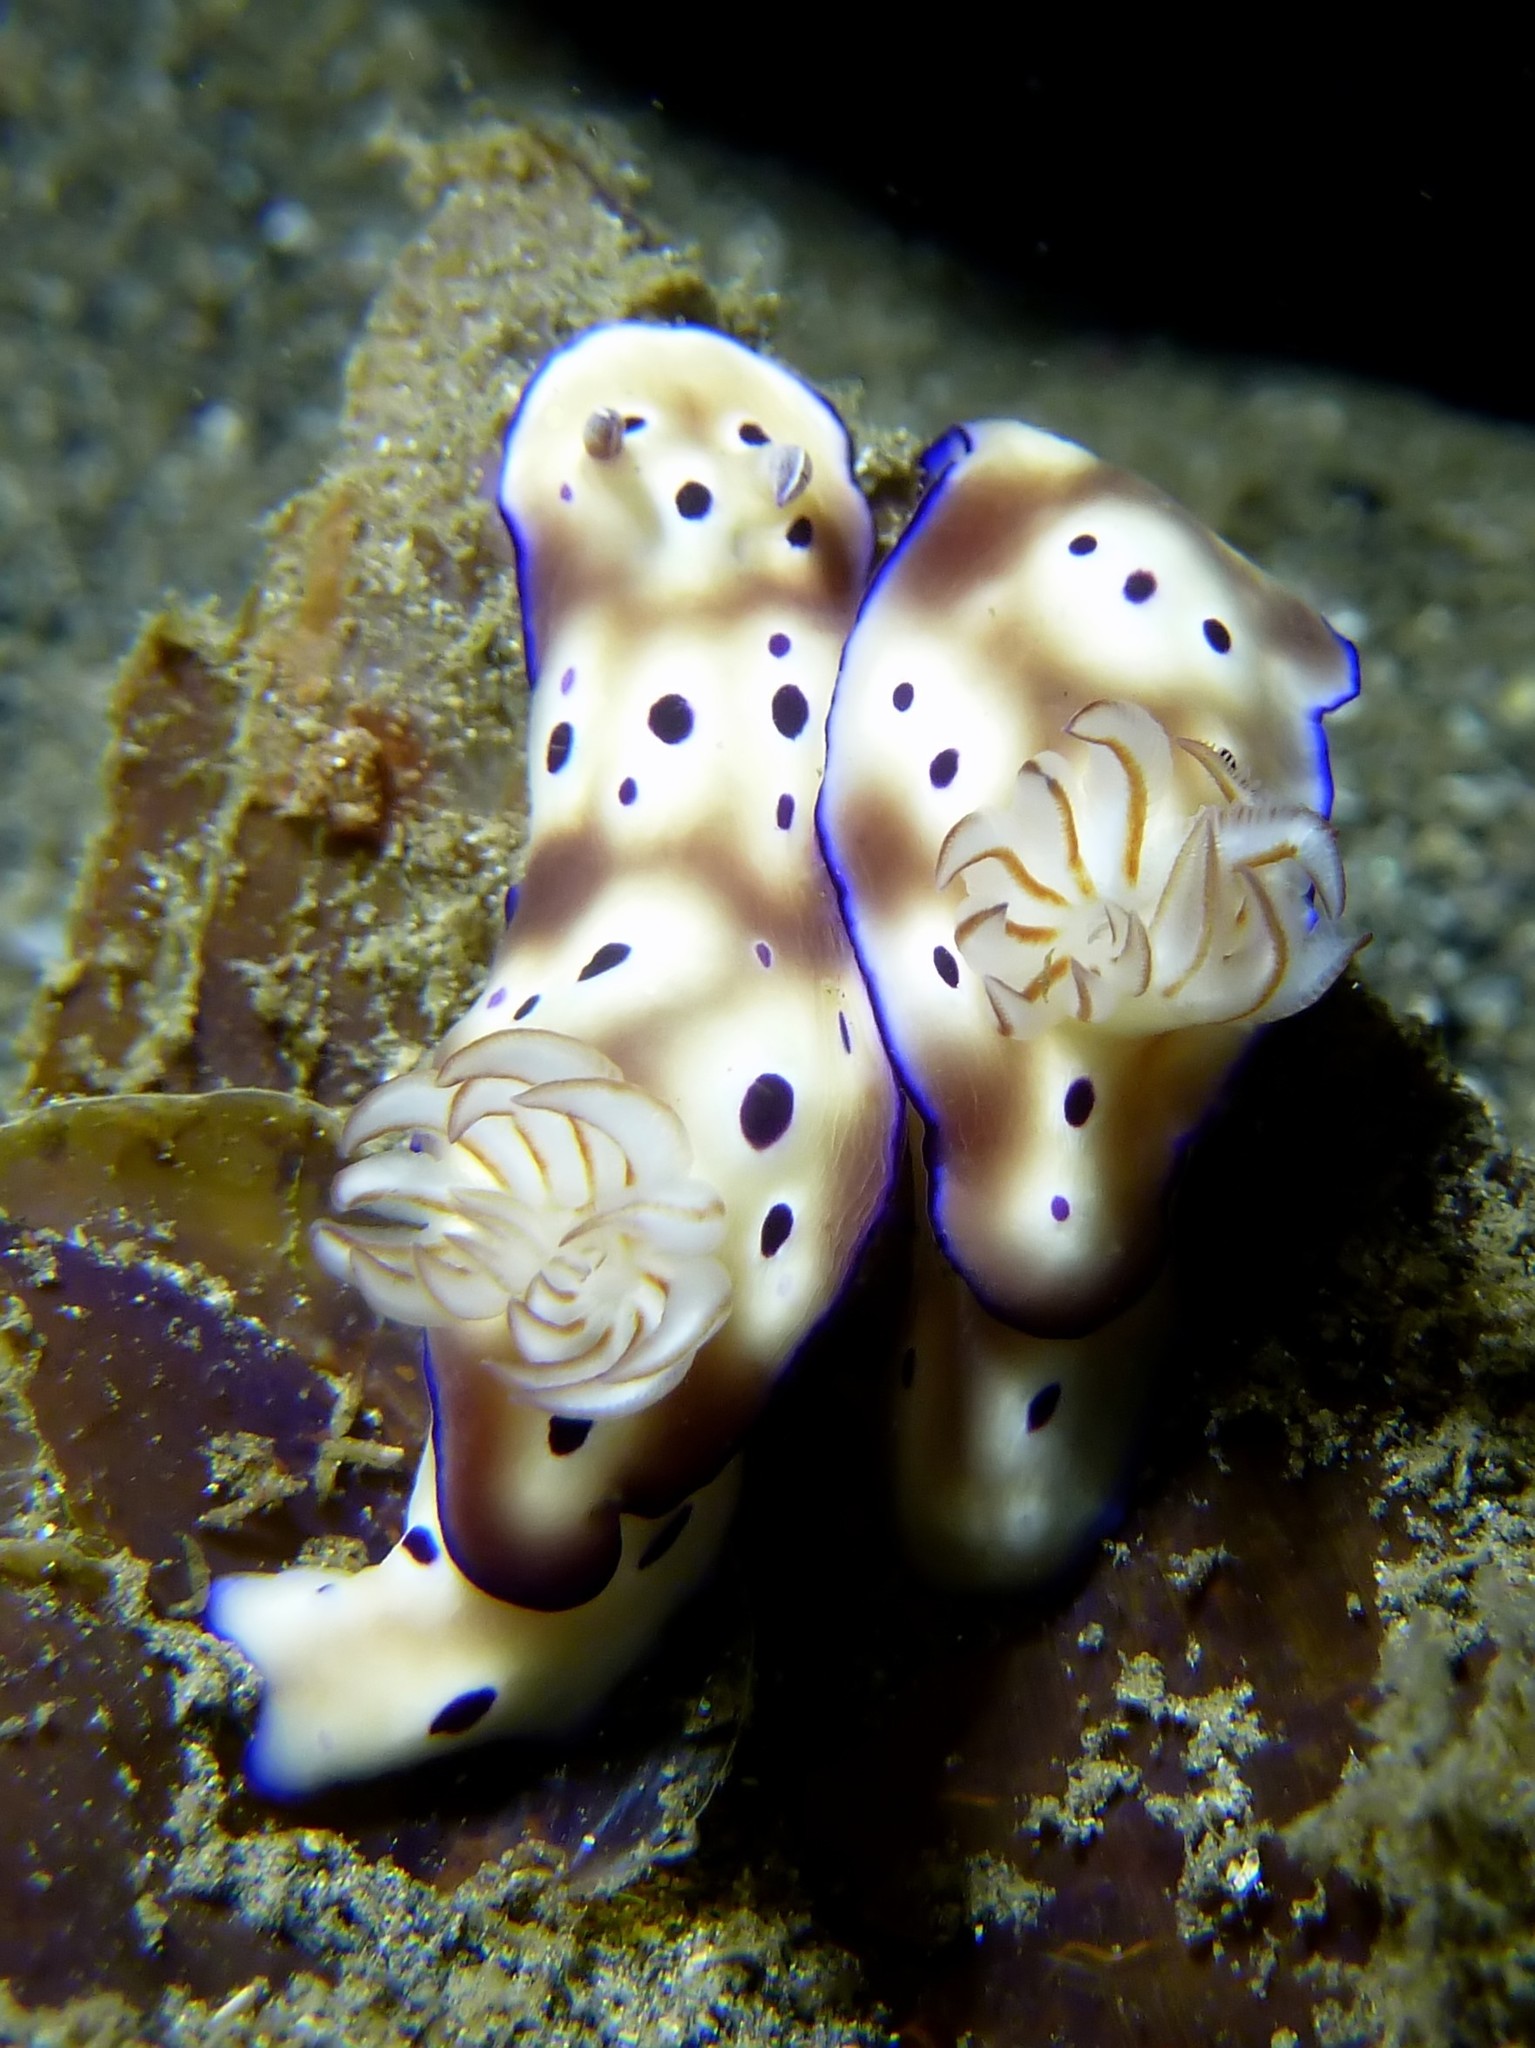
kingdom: Animalia
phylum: Mollusca
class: Gastropoda
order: Nudibranchia
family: Chromodorididae
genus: Hypselodoris
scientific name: Hypselodoris tryoni
